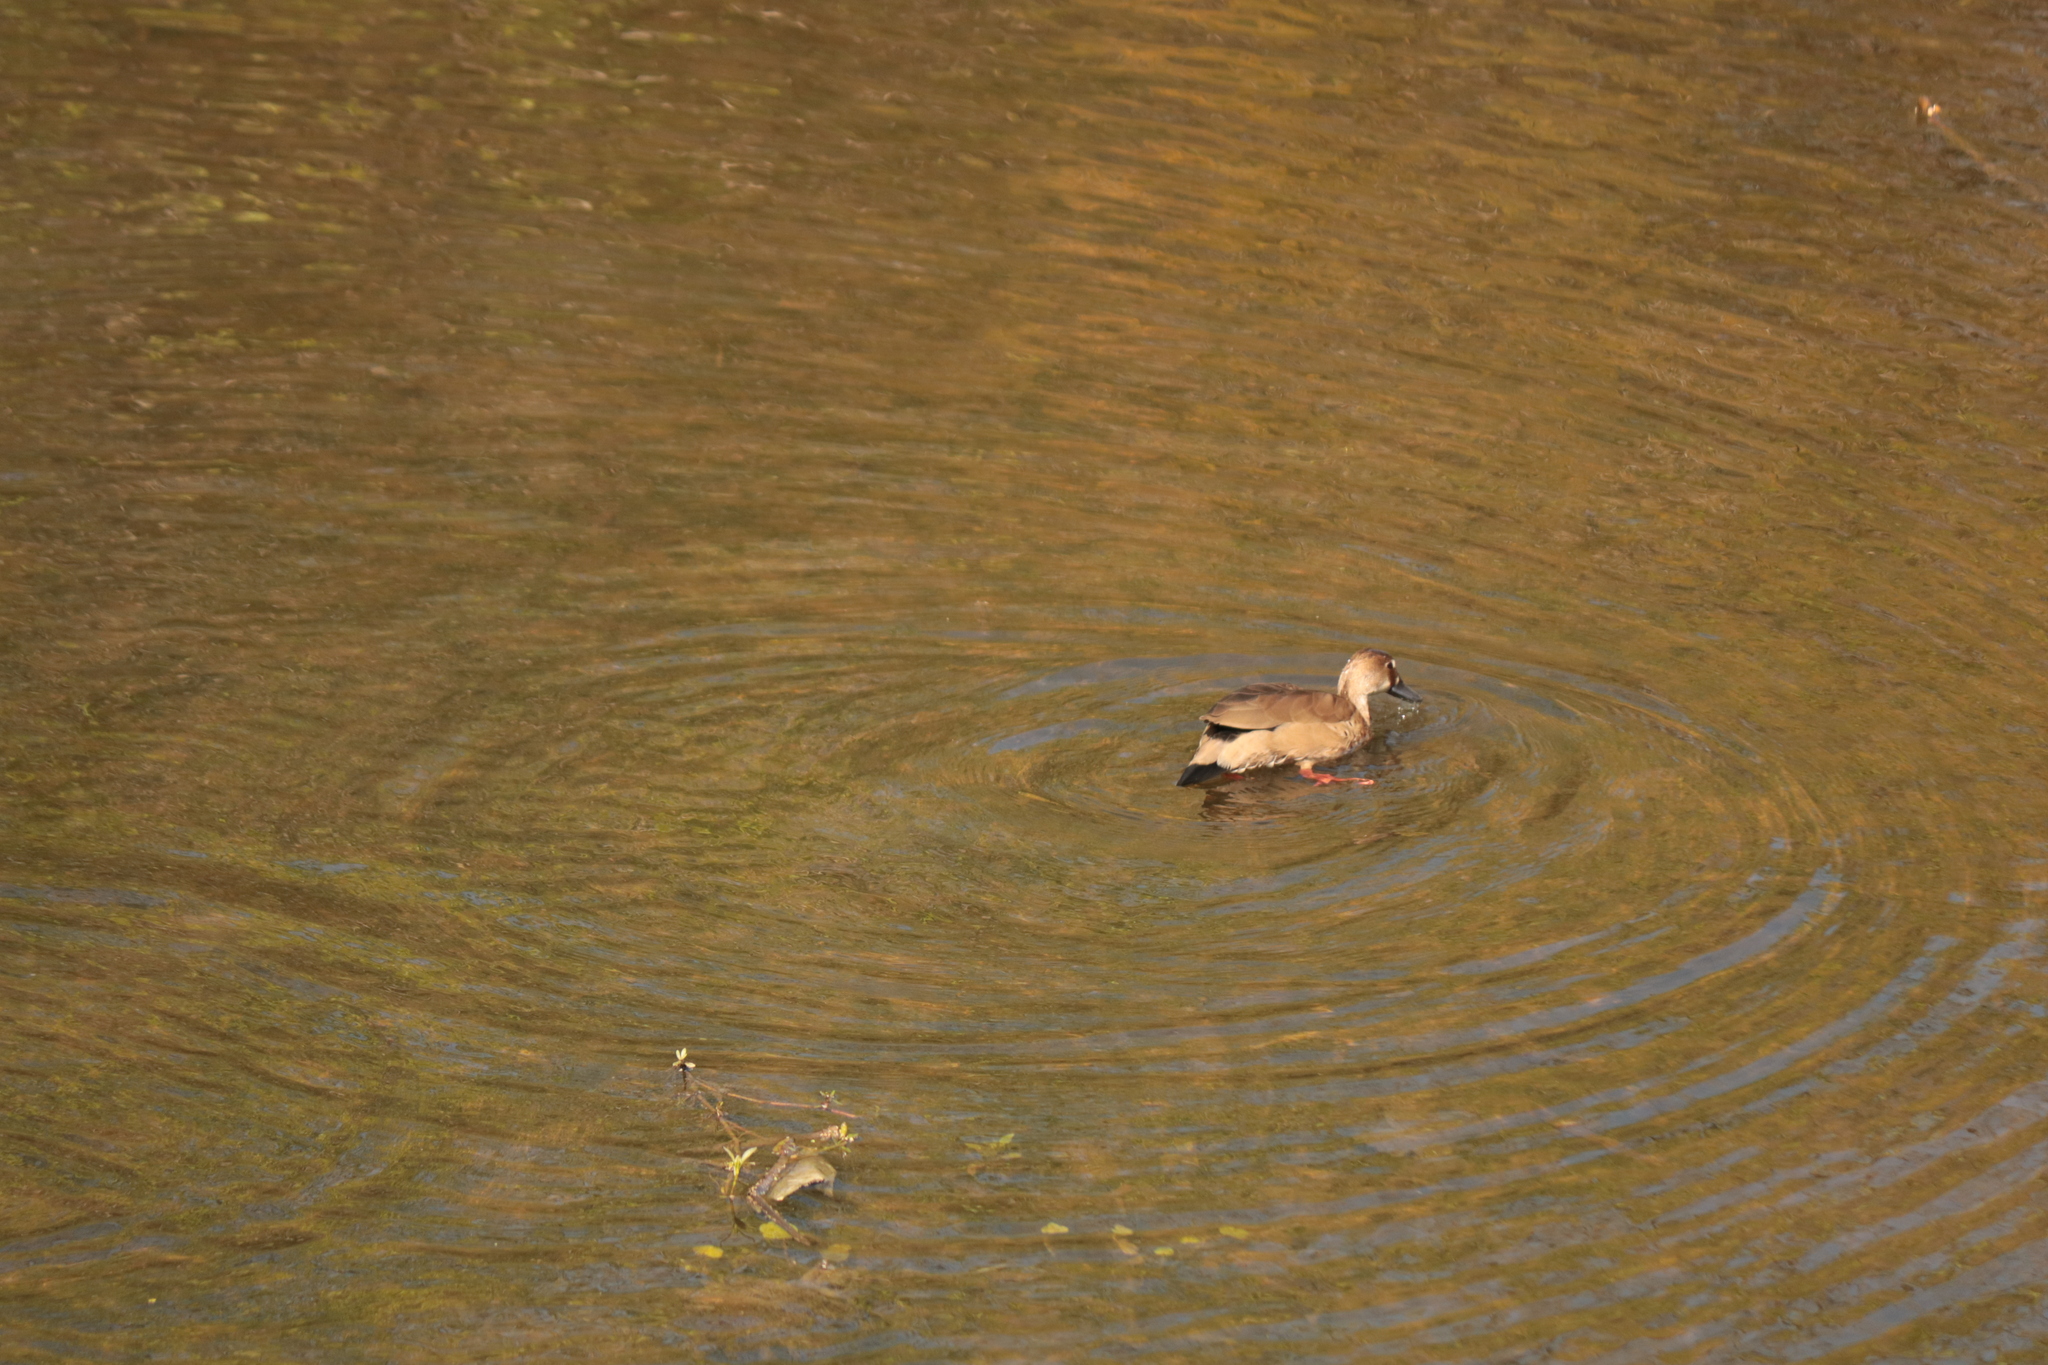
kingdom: Animalia
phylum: Chordata
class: Aves
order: Anseriformes
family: Anatidae
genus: Amazonetta
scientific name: Amazonetta brasiliensis
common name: Brazilian teal
